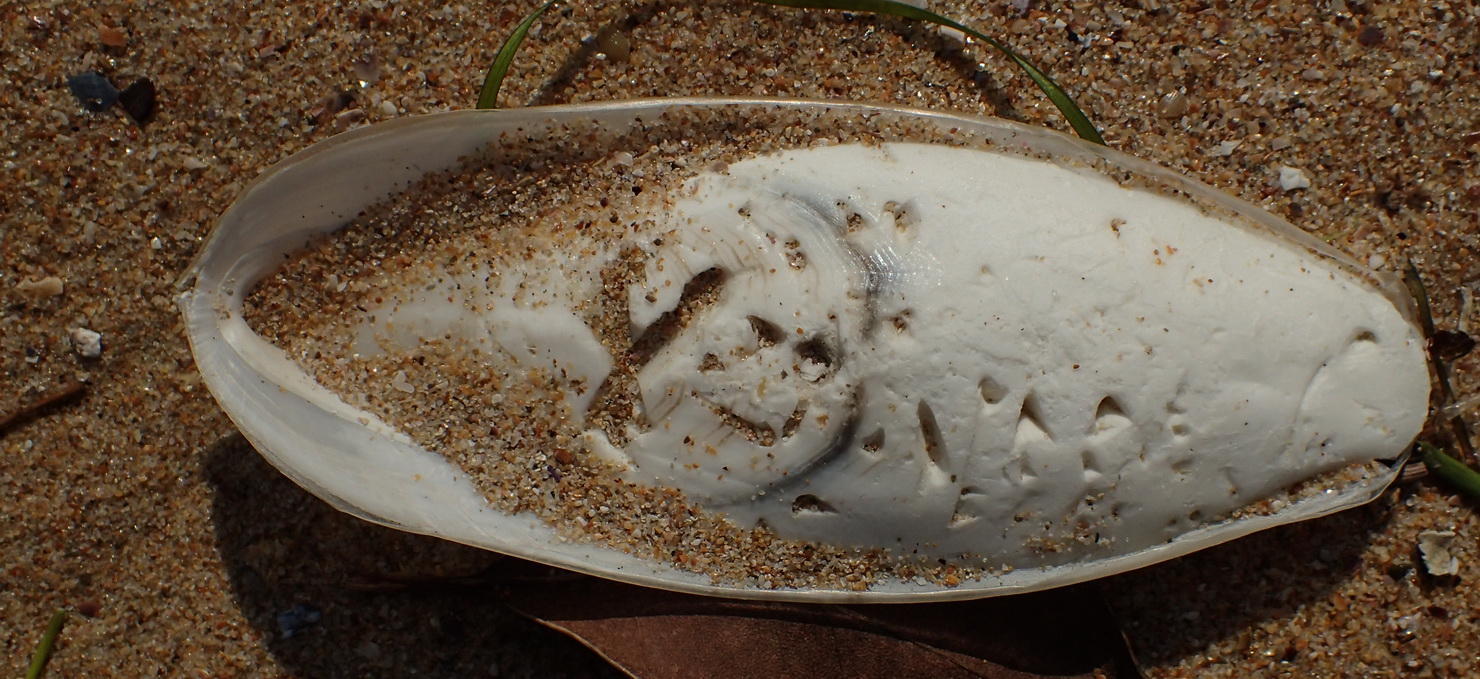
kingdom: Animalia
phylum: Mollusca
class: Cephalopoda
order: Sepiida
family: Sepiidae
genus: Sepia
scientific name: Sepia vermiculata
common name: Patchwork cuttlefish
